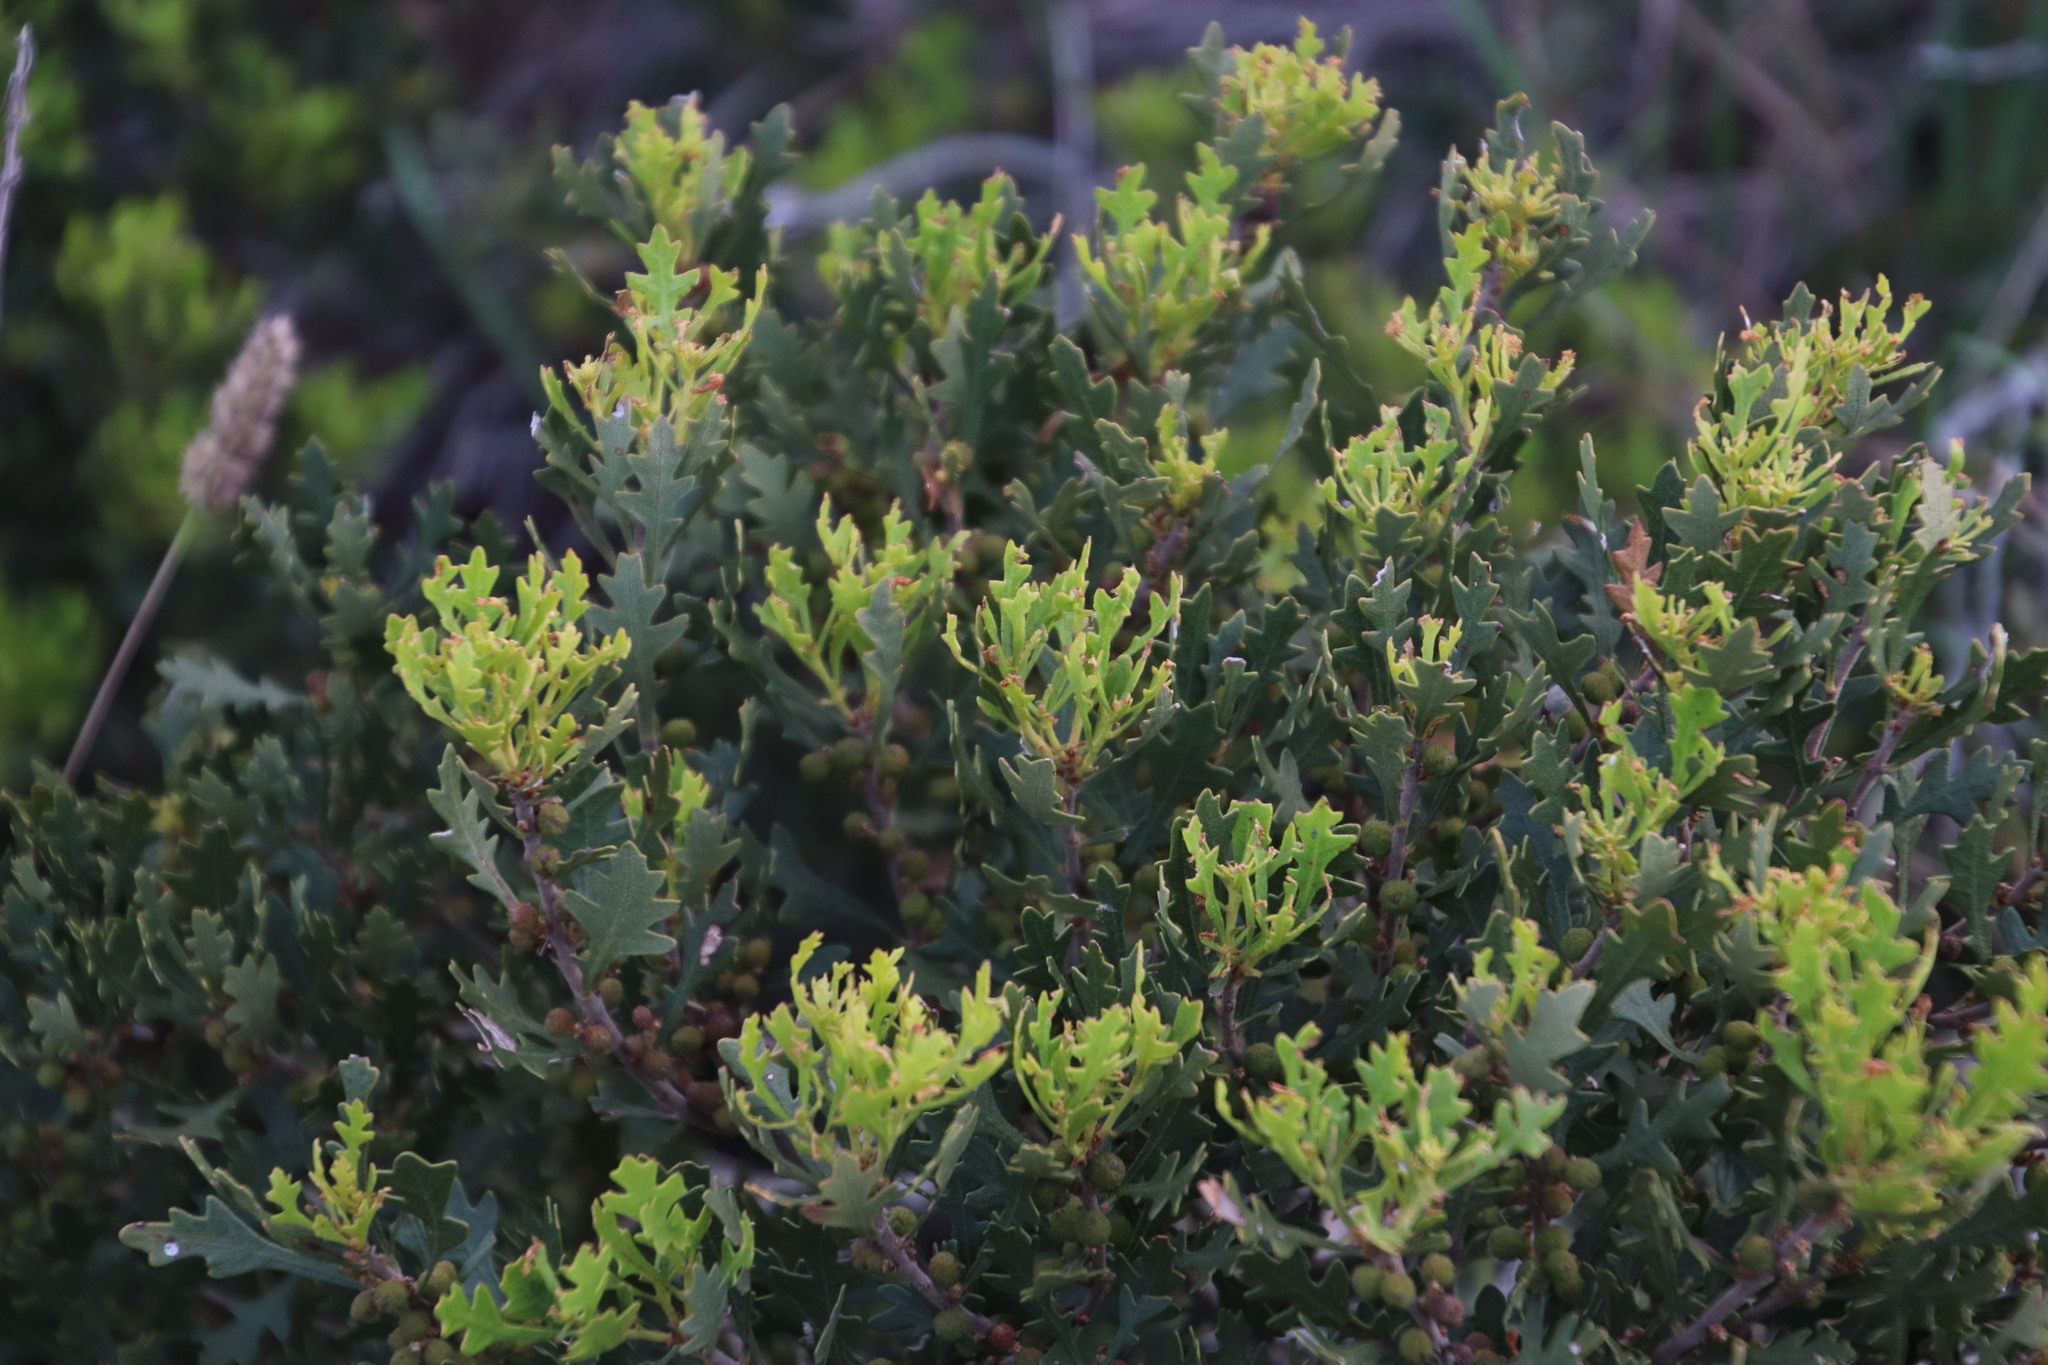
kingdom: Plantae
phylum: Tracheophyta
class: Magnoliopsida
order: Fagales
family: Myricaceae
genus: Morella
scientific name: Morella quercifolia
